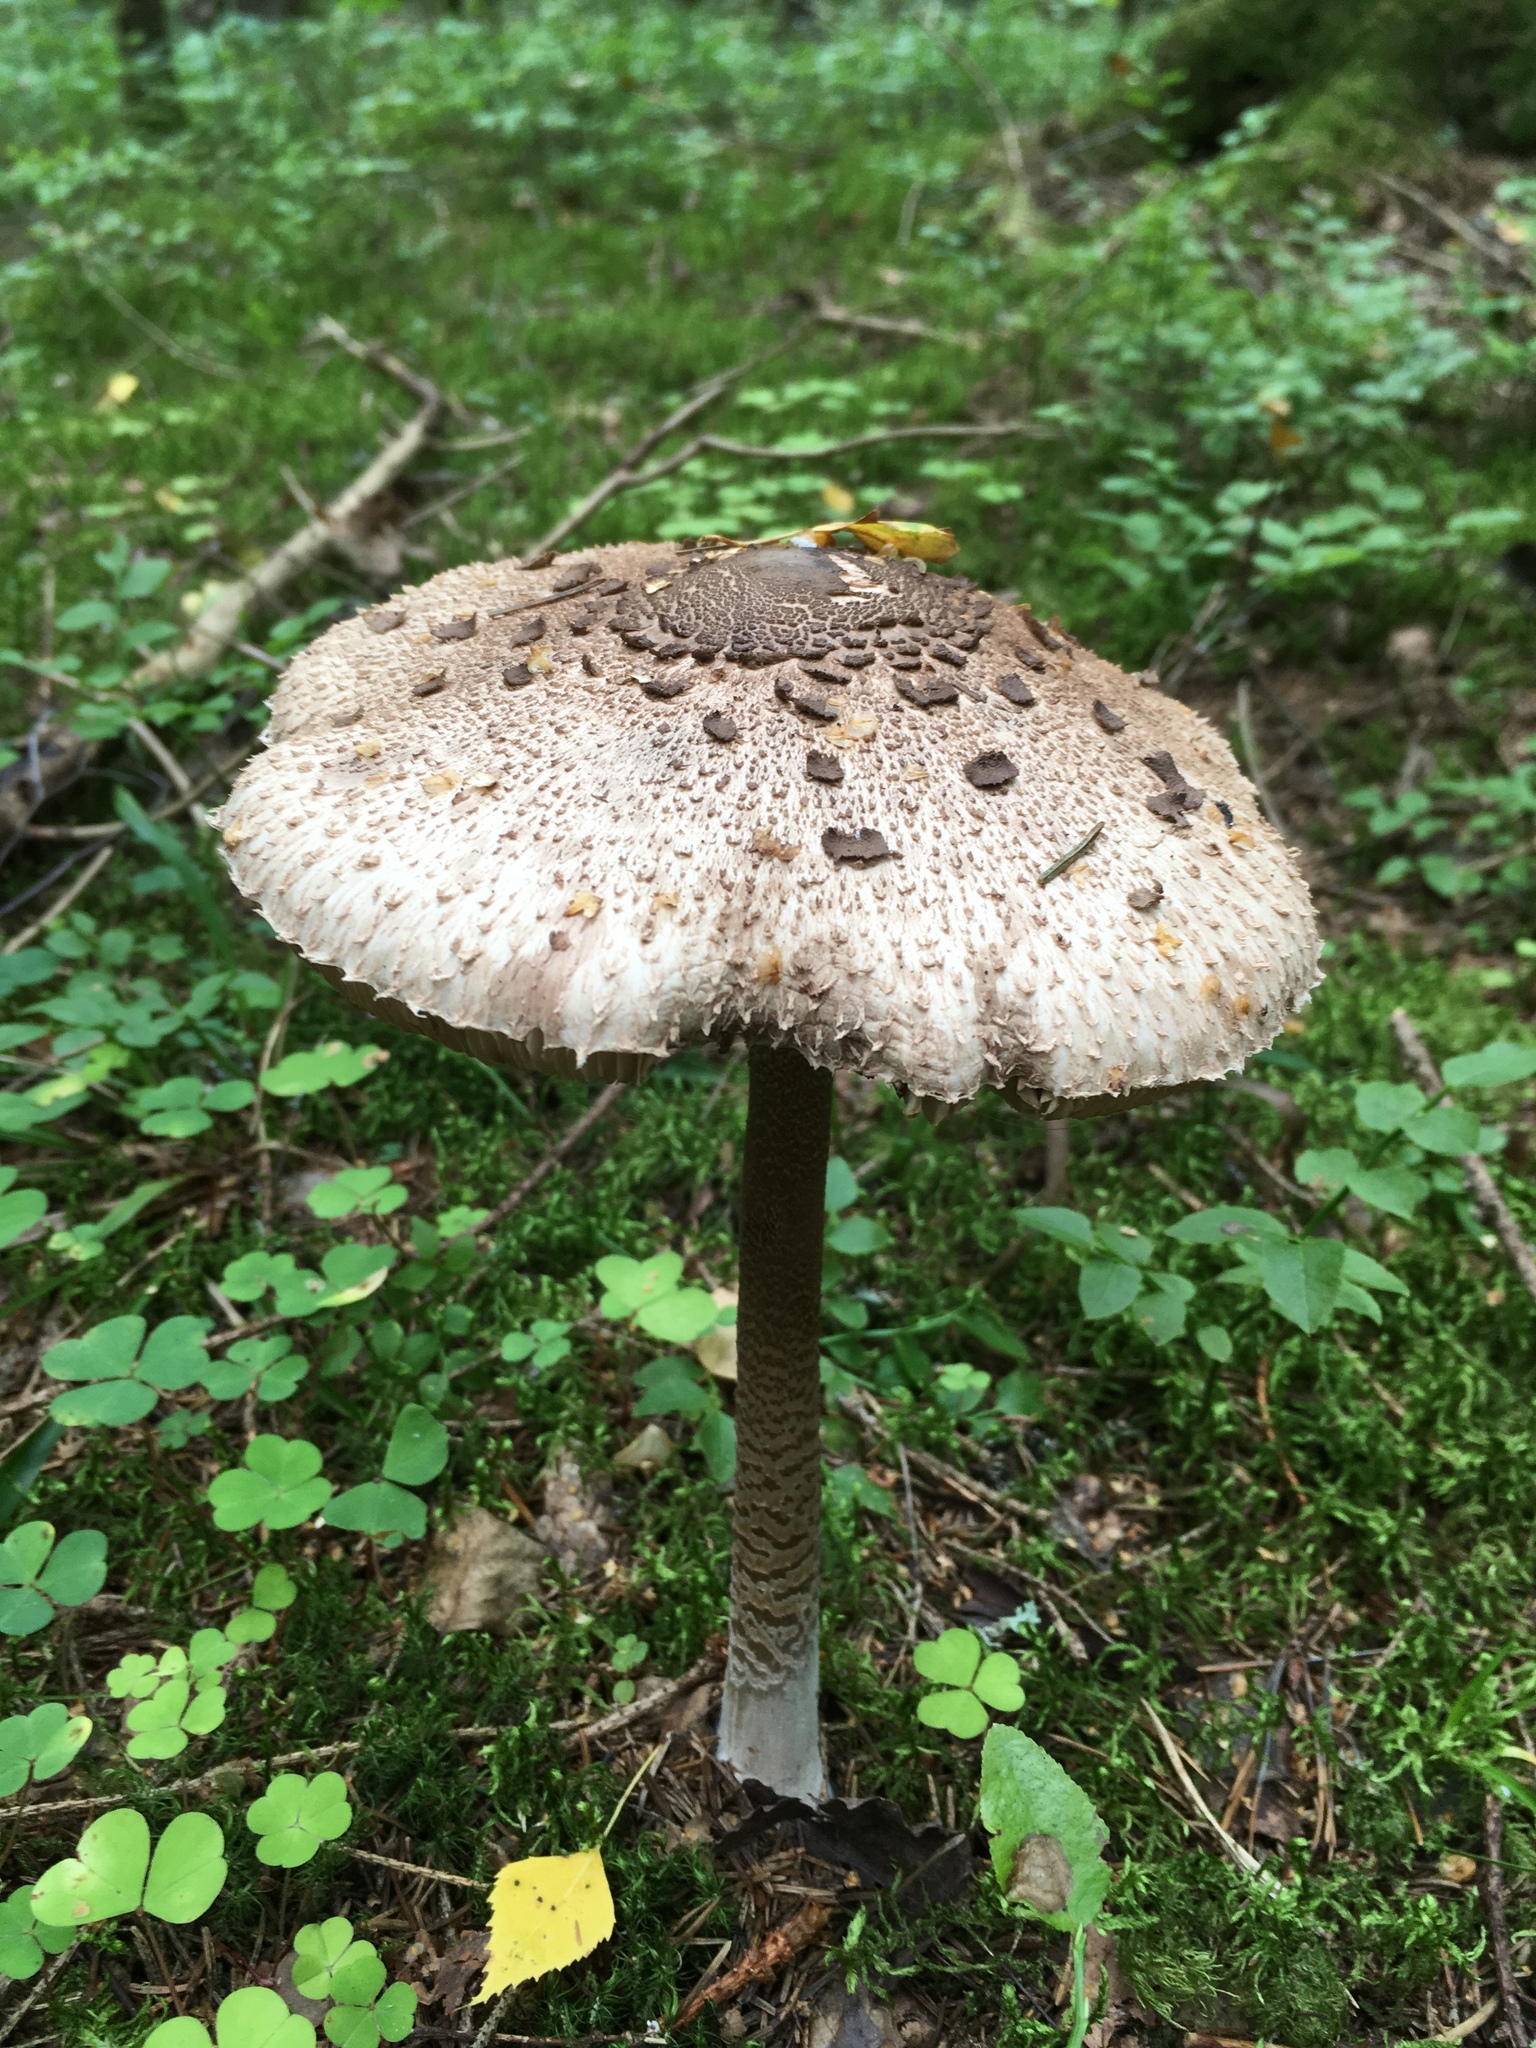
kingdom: Fungi
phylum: Basidiomycota
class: Agaricomycetes
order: Agaricales
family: Agaricaceae
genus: Macrolepiota
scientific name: Macrolepiota procera
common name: Parasol
